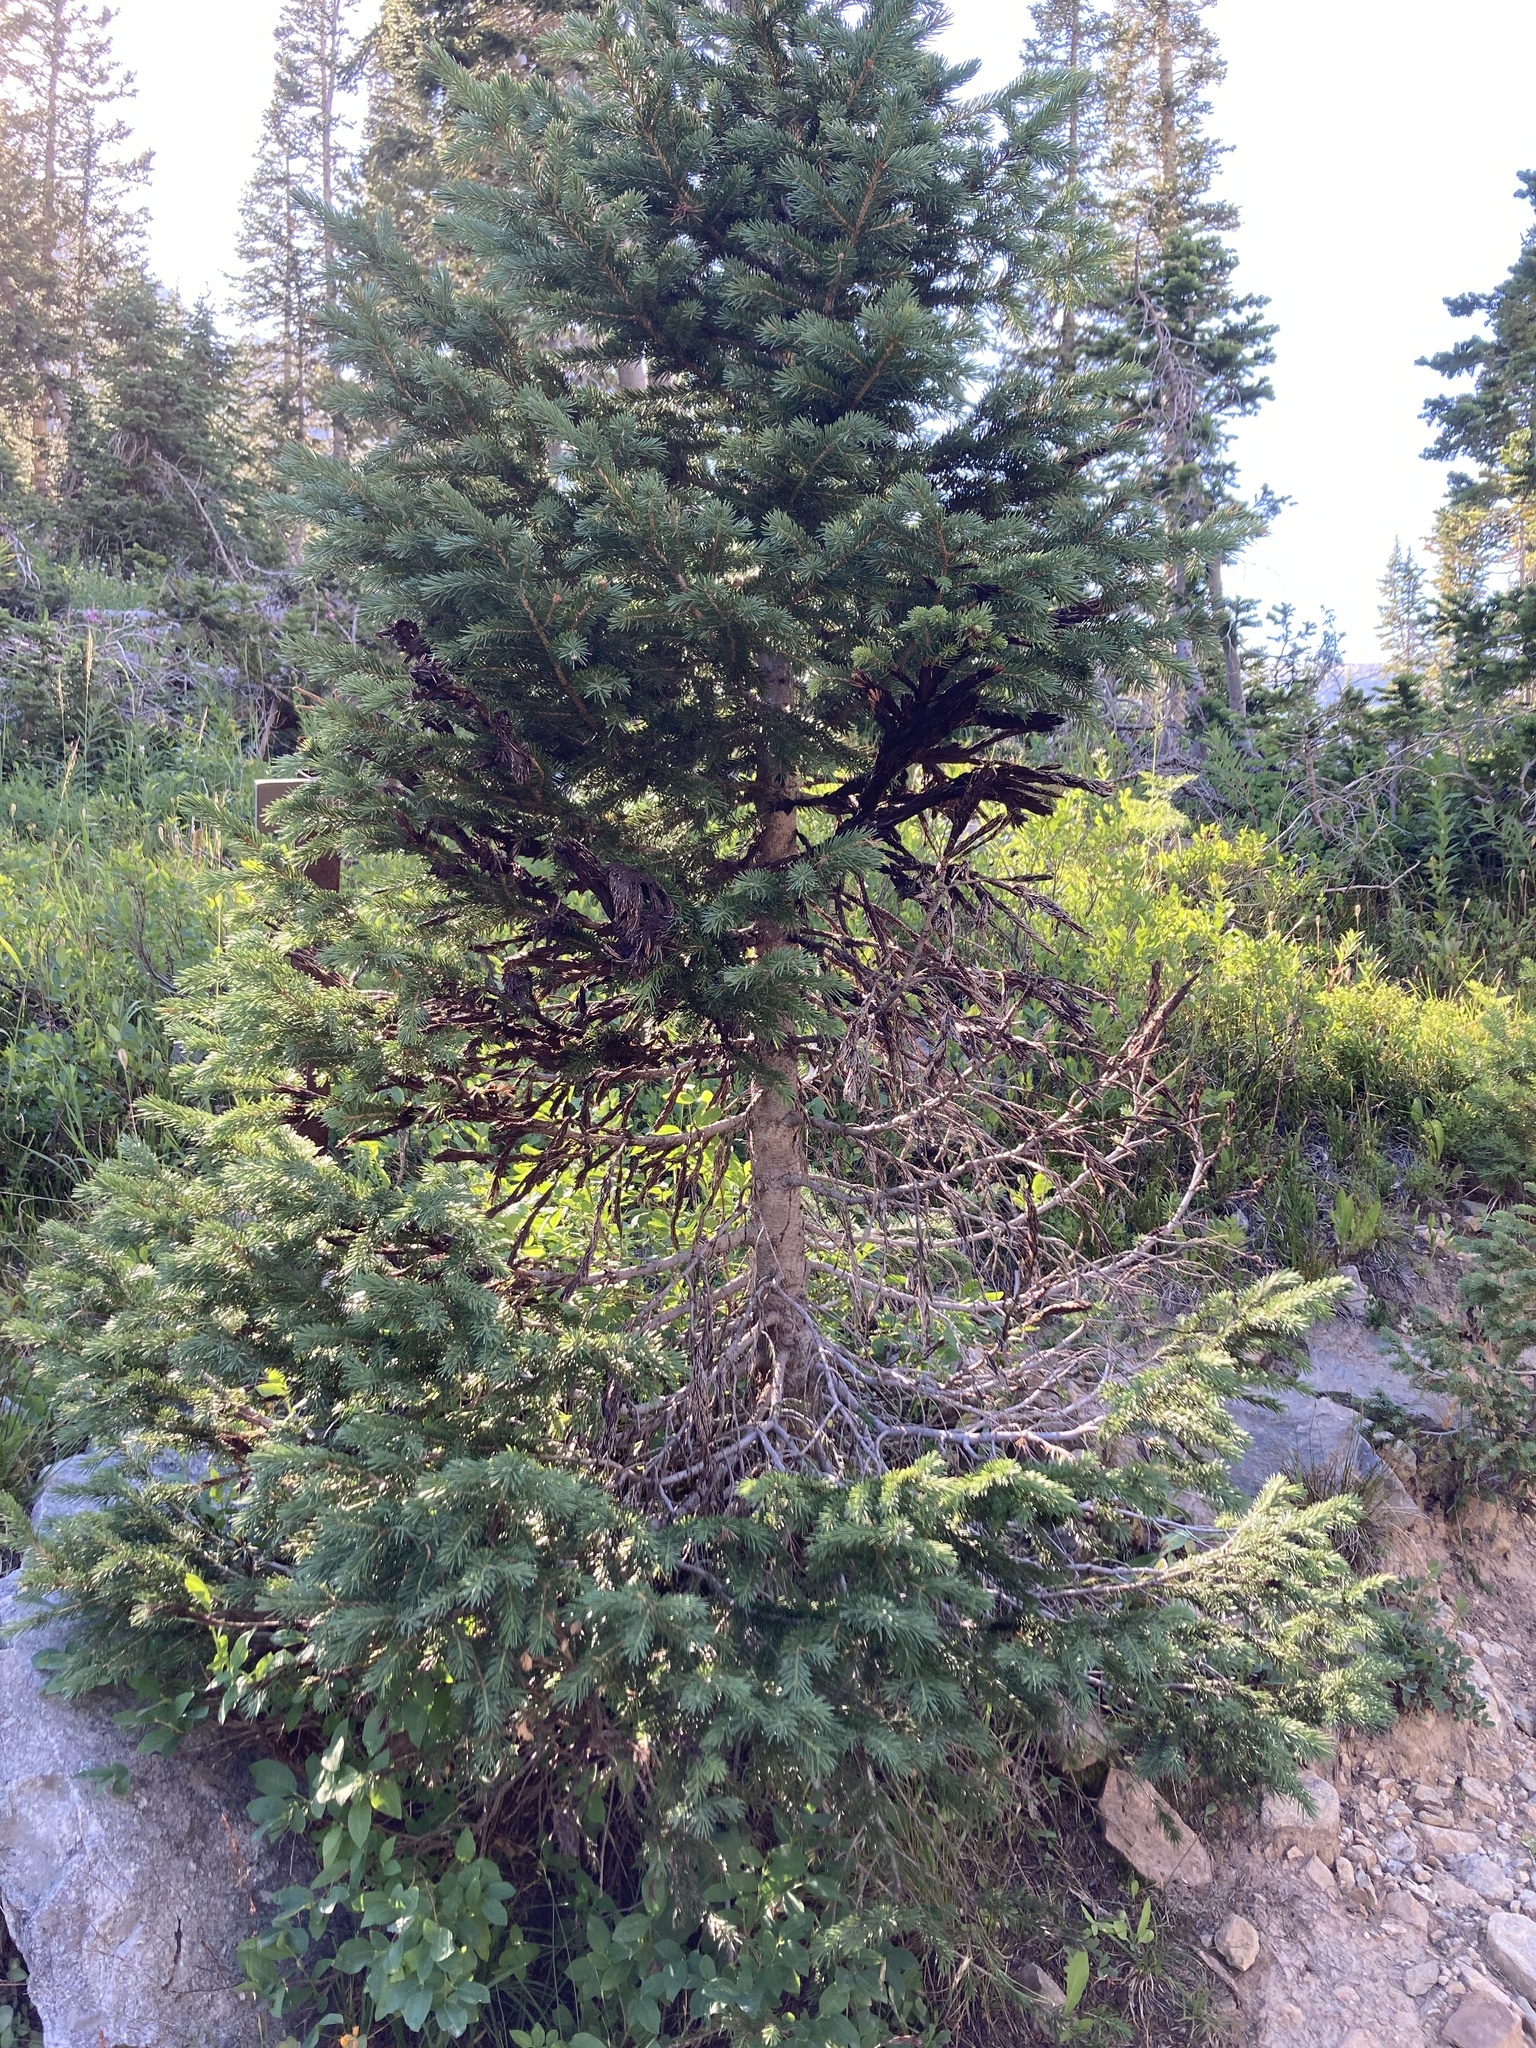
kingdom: Plantae
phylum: Tracheophyta
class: Pinopsida
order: Pinales
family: Pinaceae
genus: Picea
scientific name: Picea engelmannii
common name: Engelmann spruce
